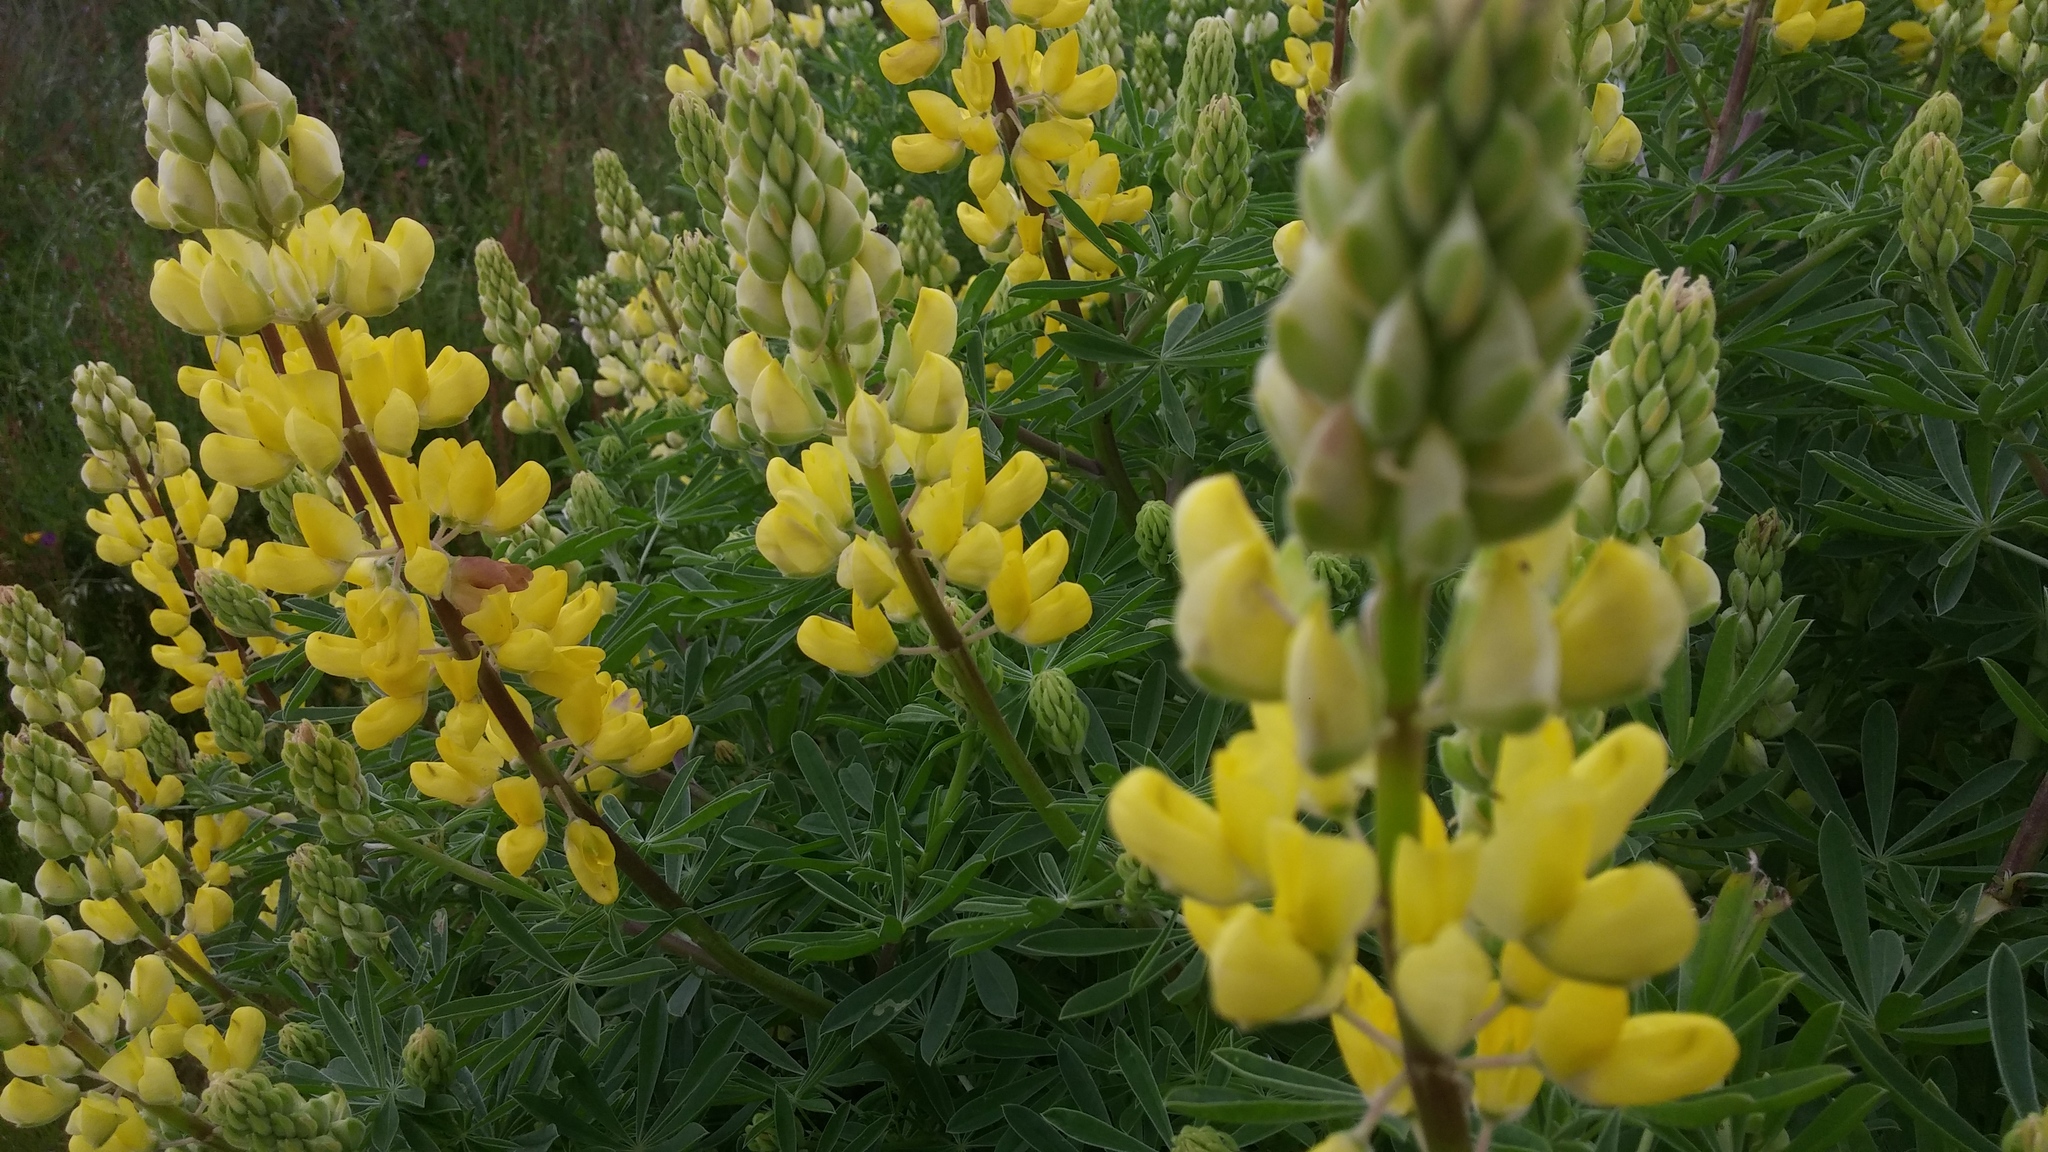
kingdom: Plantae
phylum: Tracheophyta
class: Magnoliopsida
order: Fabales
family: Fabaceae
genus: Lupinus
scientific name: Lupinus arboreus
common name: Yellow bush lupine
